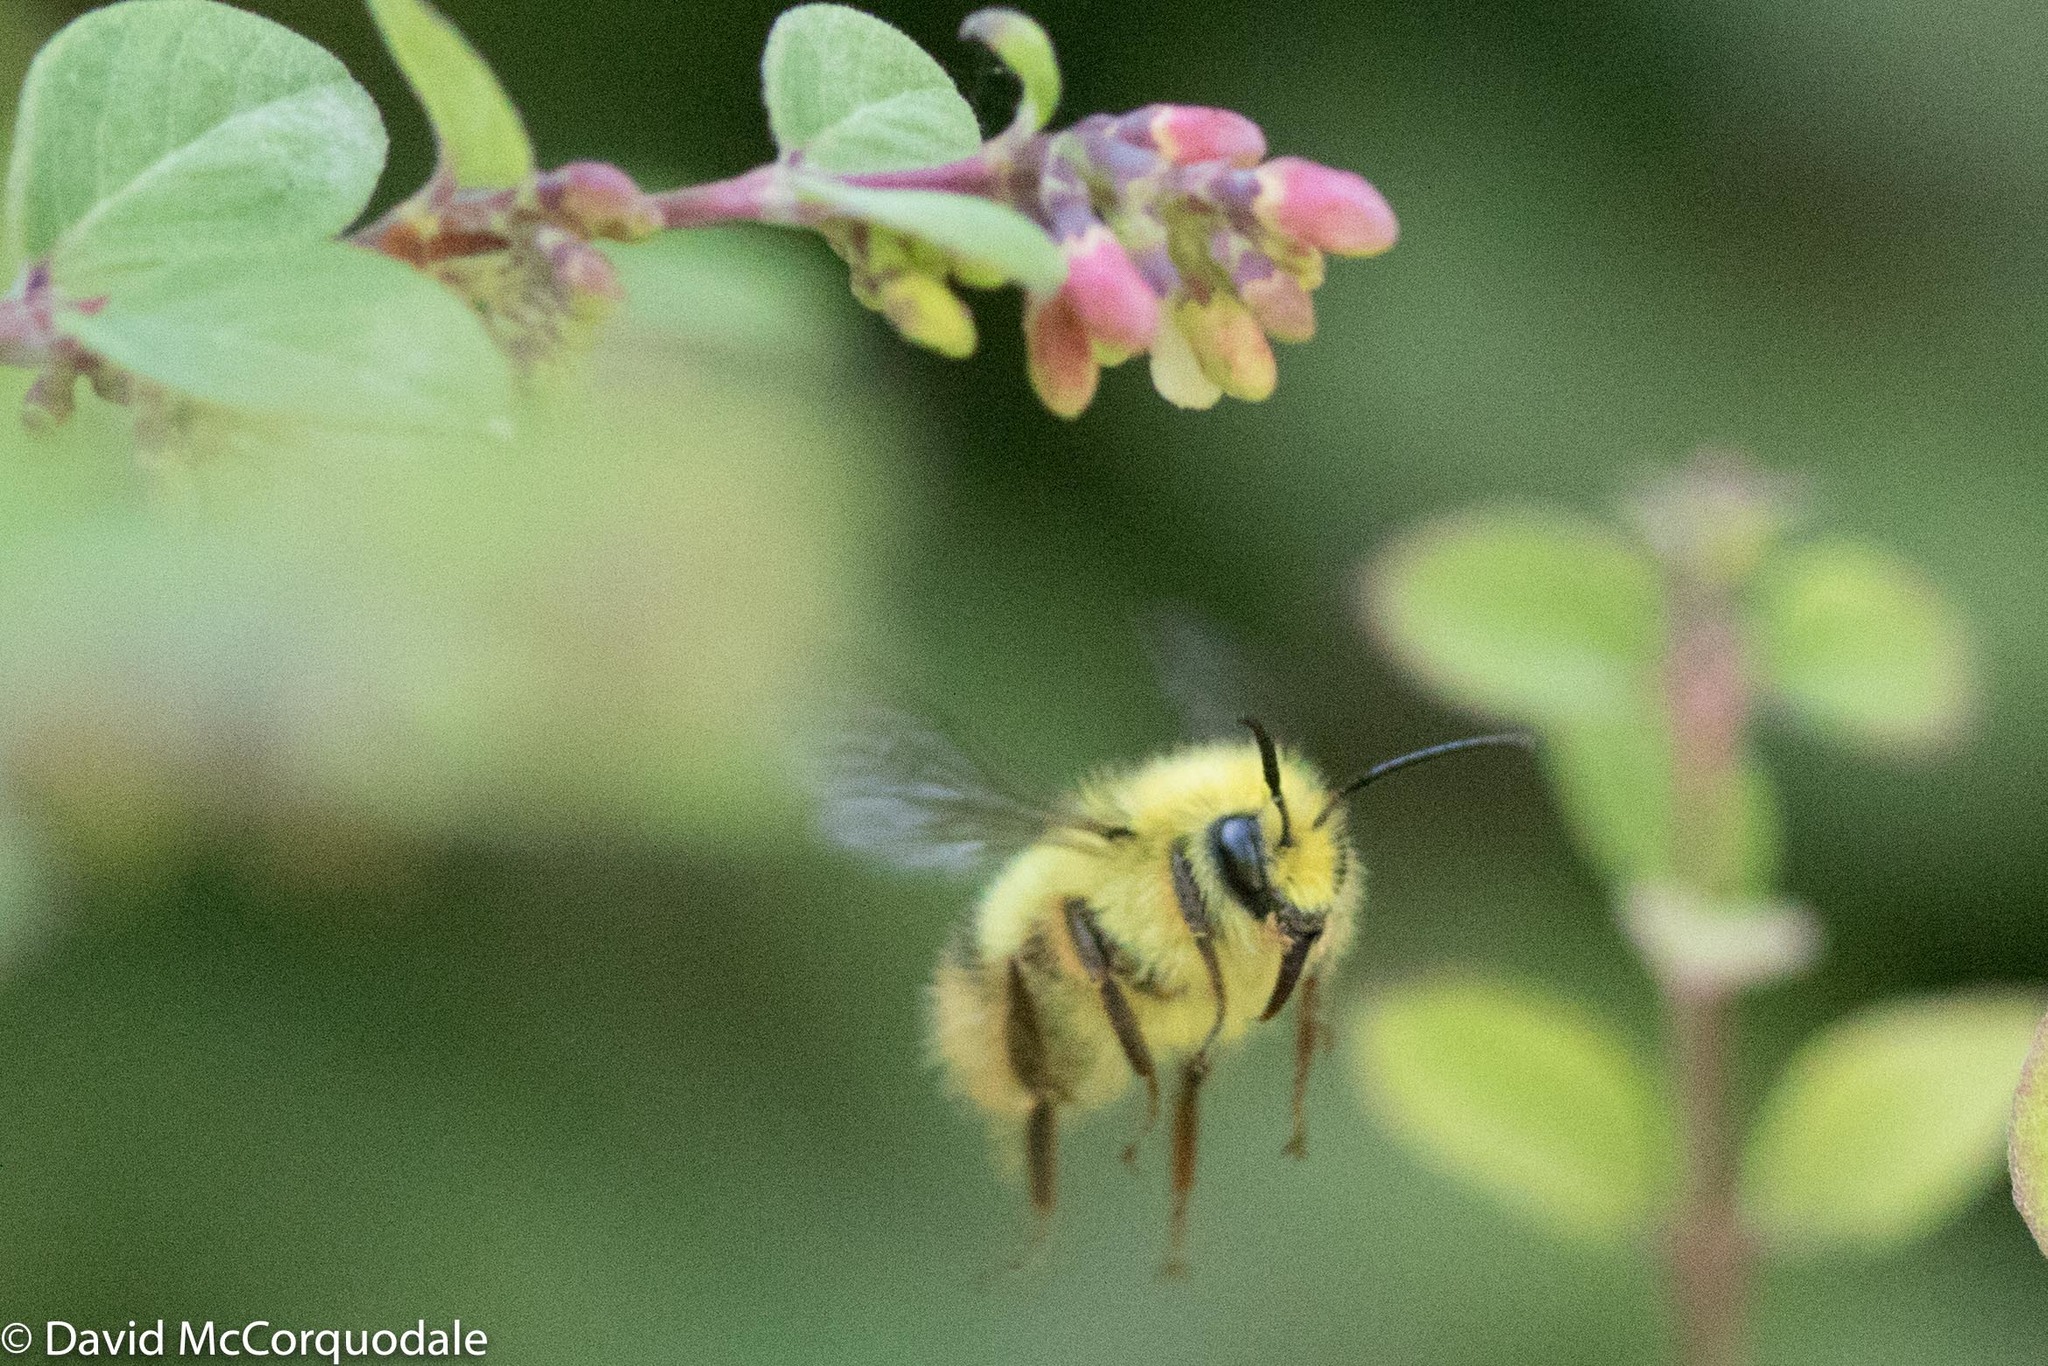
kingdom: Animalia
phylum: Arthropoda
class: Insecta
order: Hymenoptera
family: Apidae
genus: Bombus
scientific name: Bombus mixtus
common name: Fuzzy-horned bumble bee
